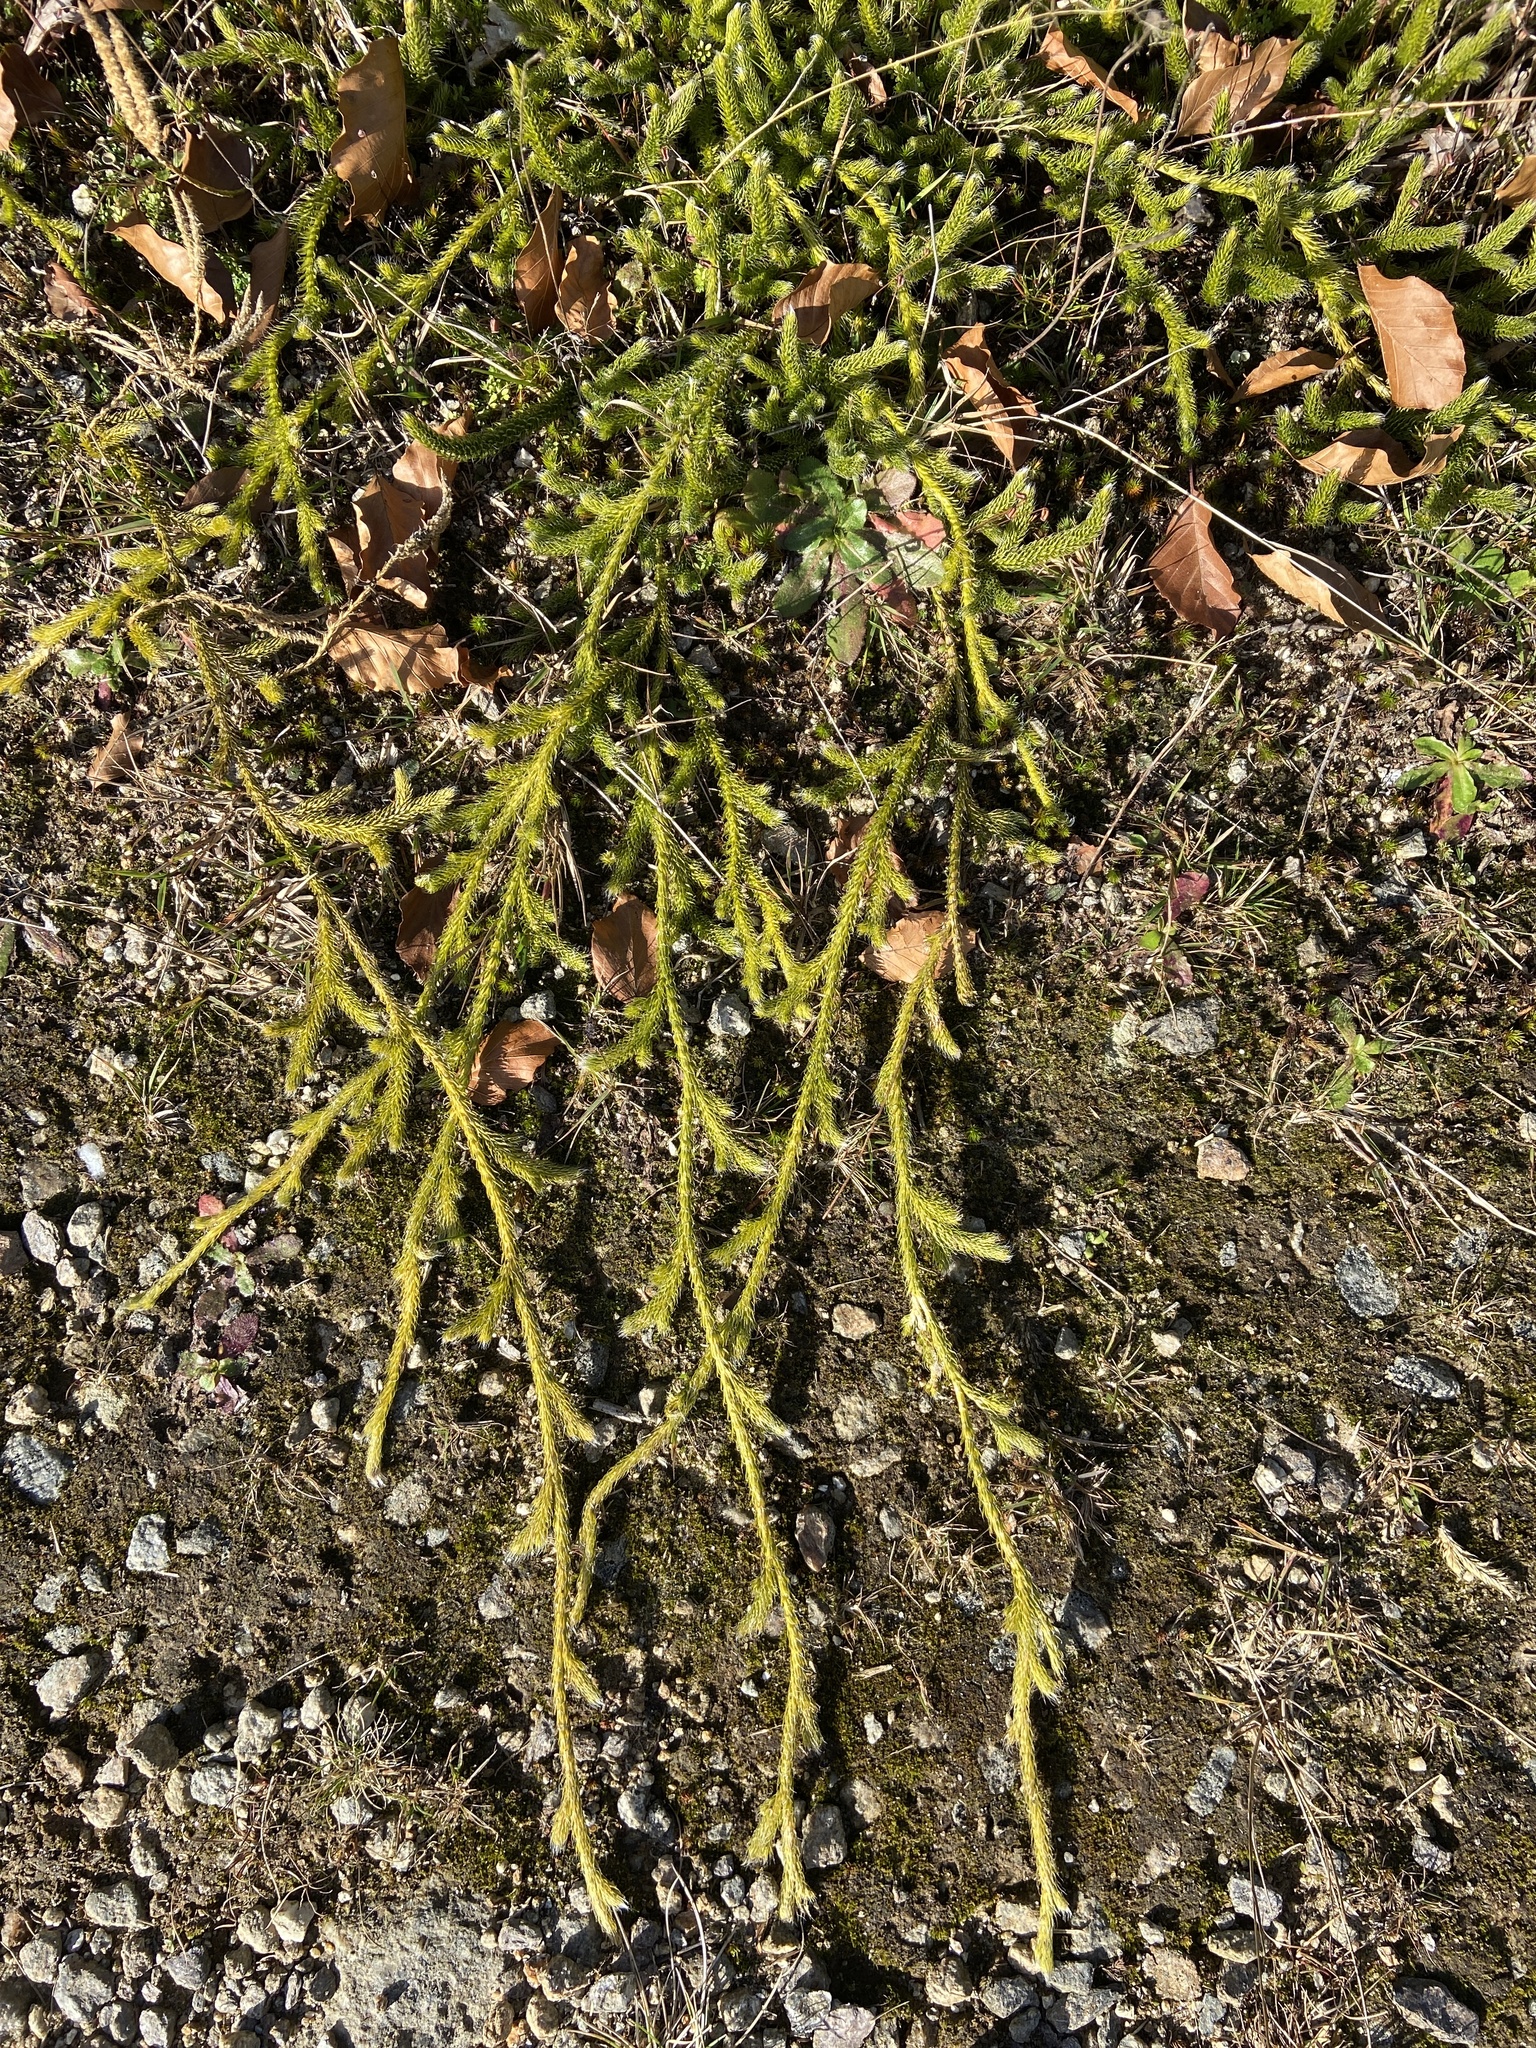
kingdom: Plantae
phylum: Tracheophyta
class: Lycopodiopsida
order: Lycopodiales
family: Lycopodiaceae
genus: Lycopodium
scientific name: Lycopodium clavatum
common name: Stag's-horn clubmoss
